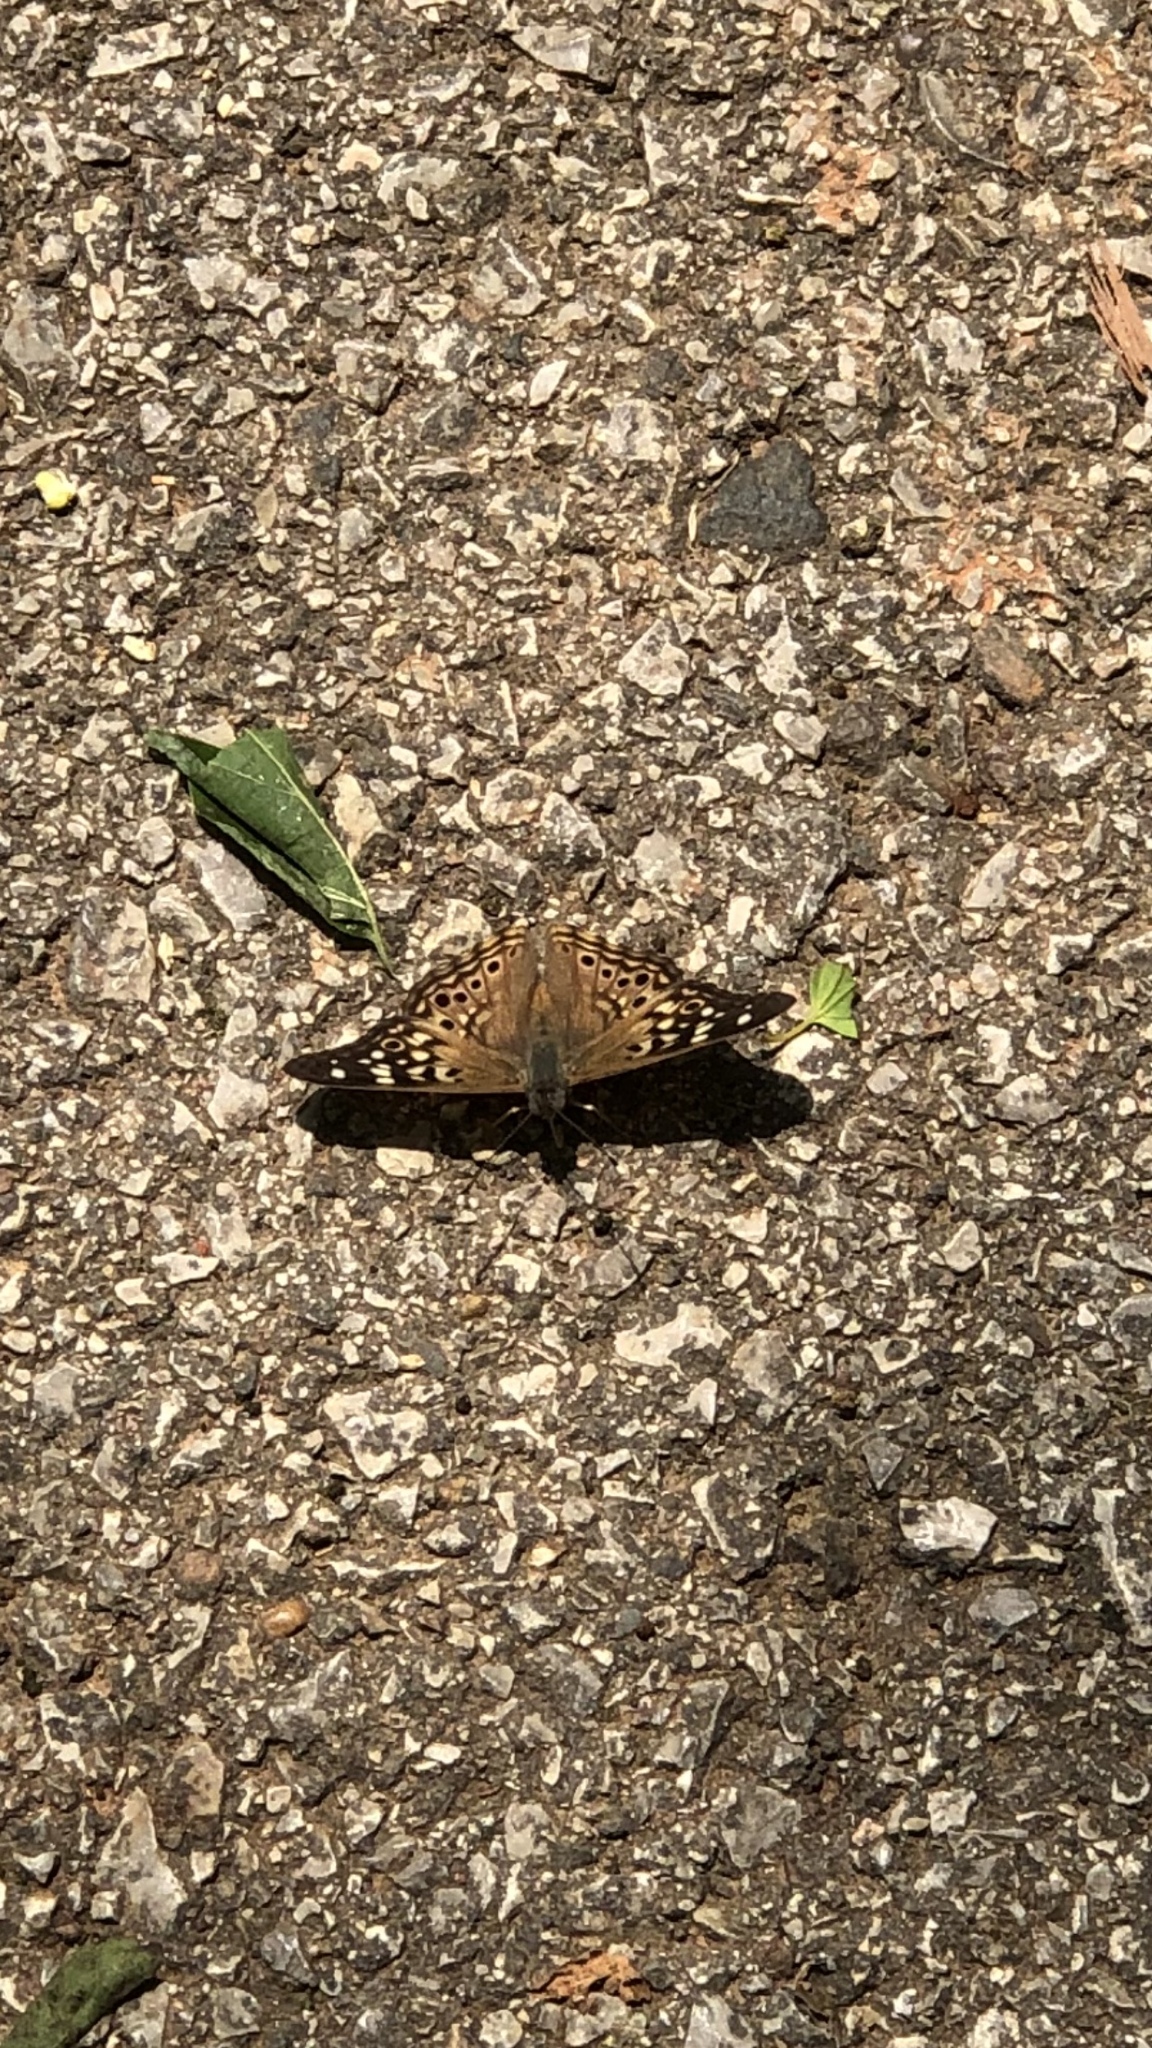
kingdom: Animalia
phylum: Arthropoda
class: Insecta
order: Lepidoptera
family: Nymphalidae
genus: Asterocampa
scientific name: Asterocampa celtis
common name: Hackberry emperor
